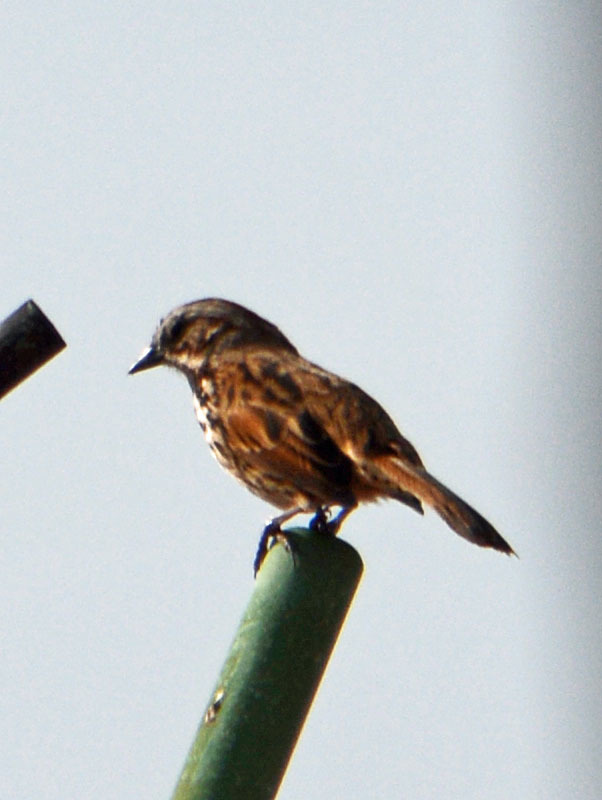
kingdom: Animalia
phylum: Chordata
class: Aves
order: Passeriformes
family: Passerellidae
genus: Melospiza
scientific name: Melospiza melodia
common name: Song sparrow
